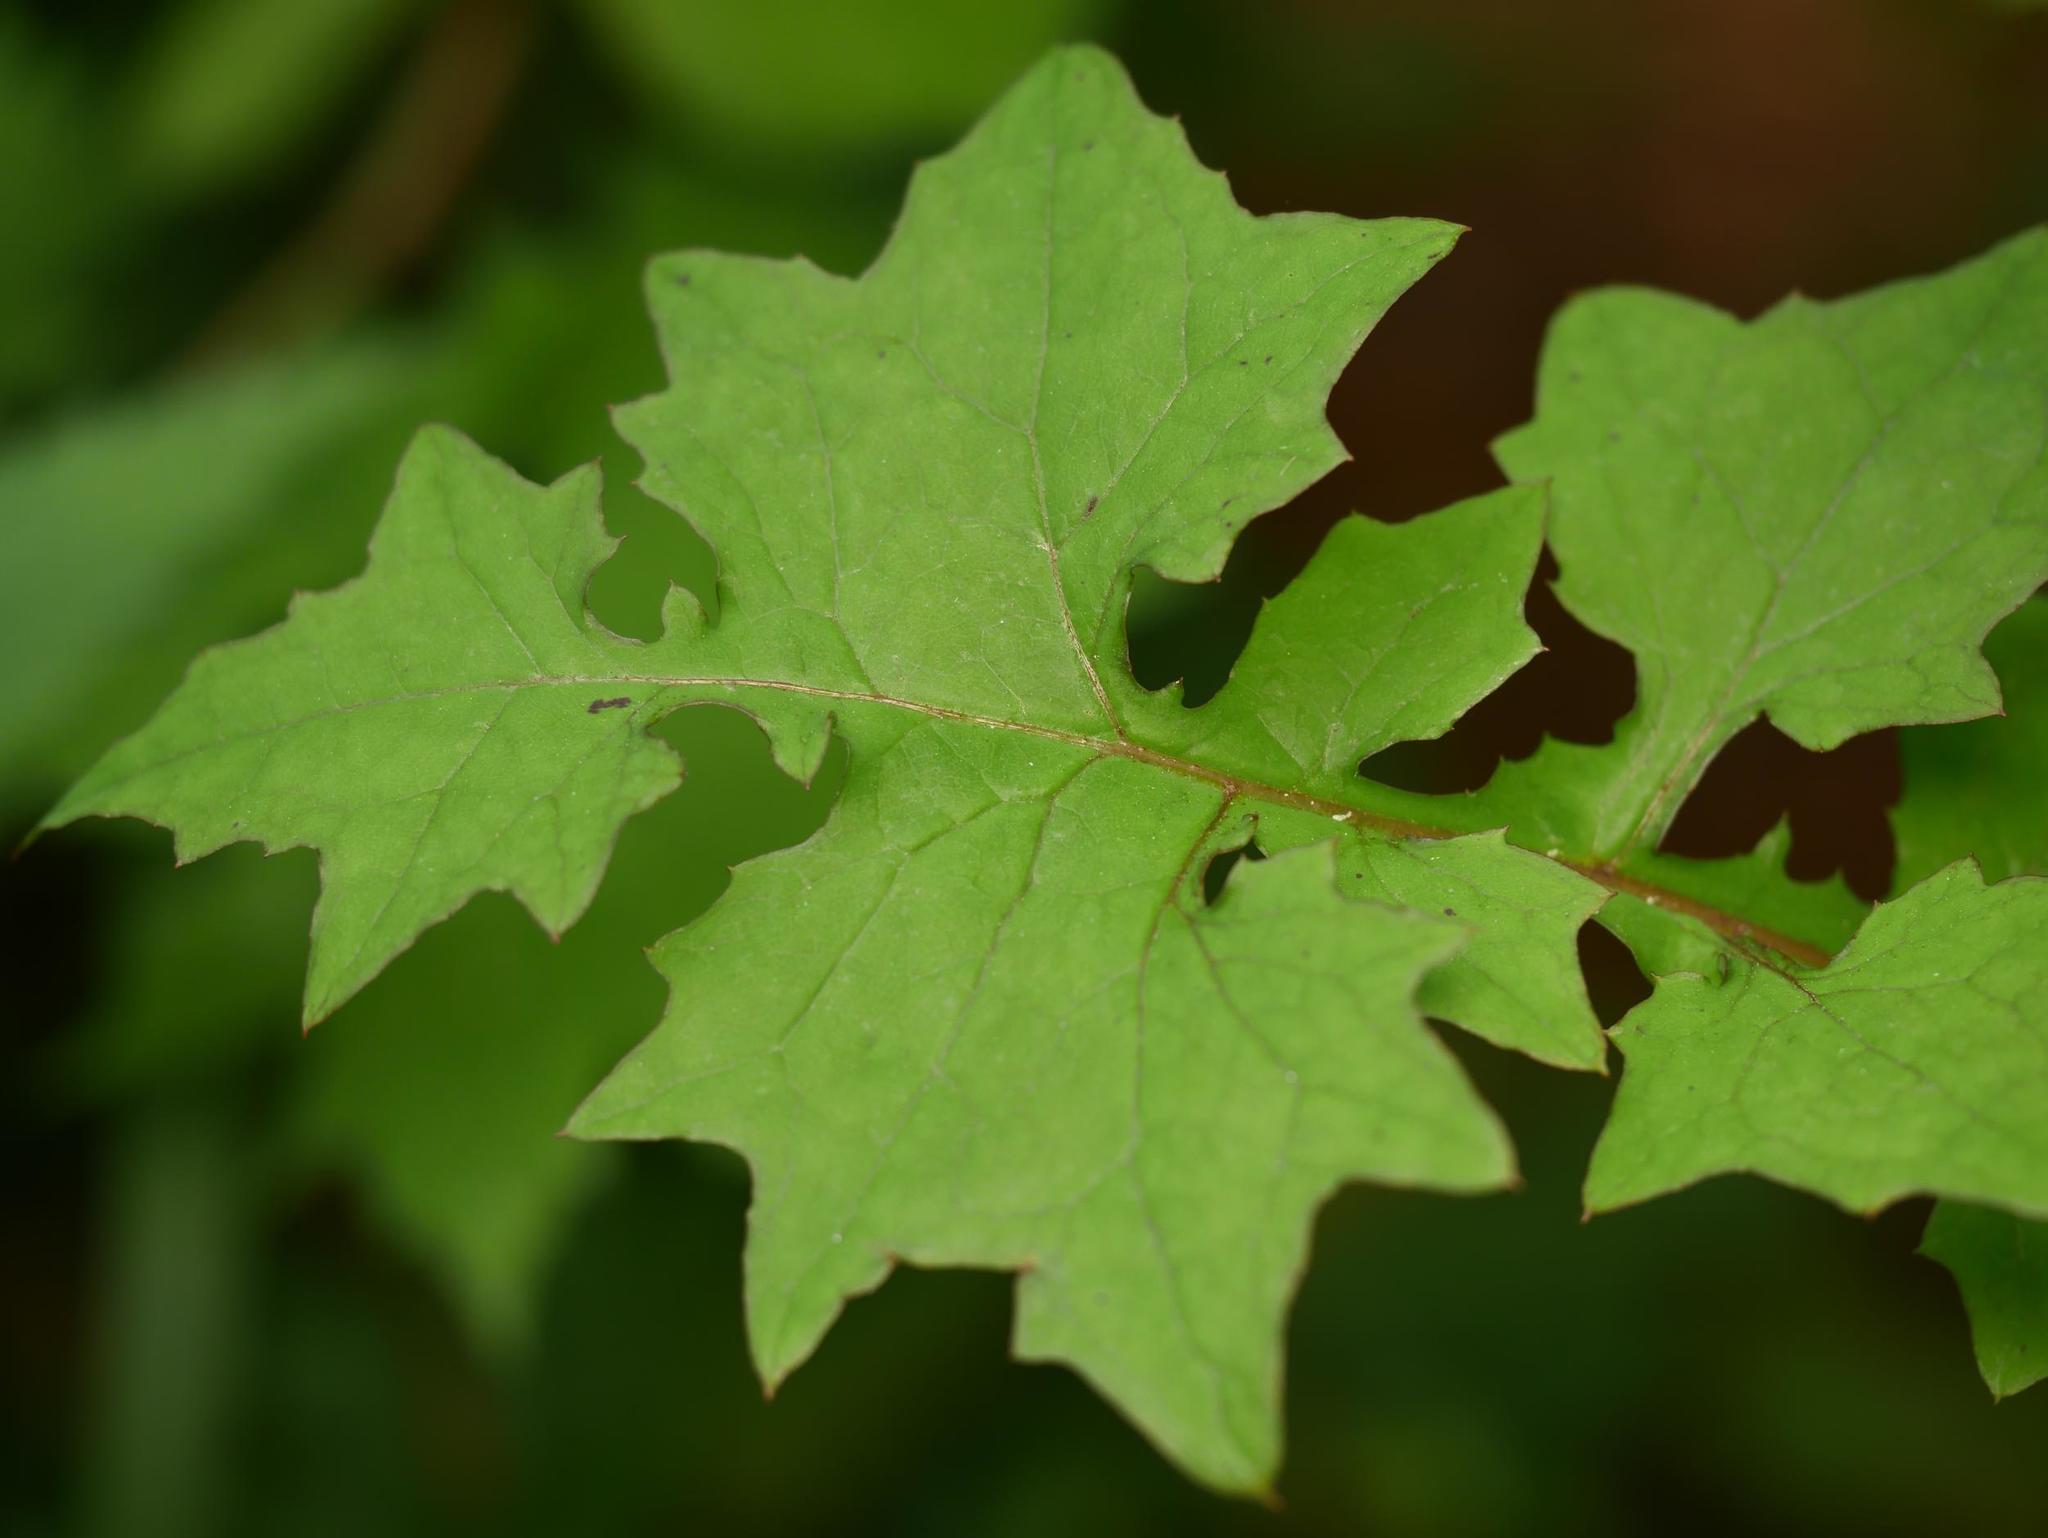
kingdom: Plantae
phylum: Tracheophyta
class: Magnoliopsida
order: Asterales
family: Asteraceae
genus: Mycelis
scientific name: Mycelis muralis
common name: Wall lettuce
